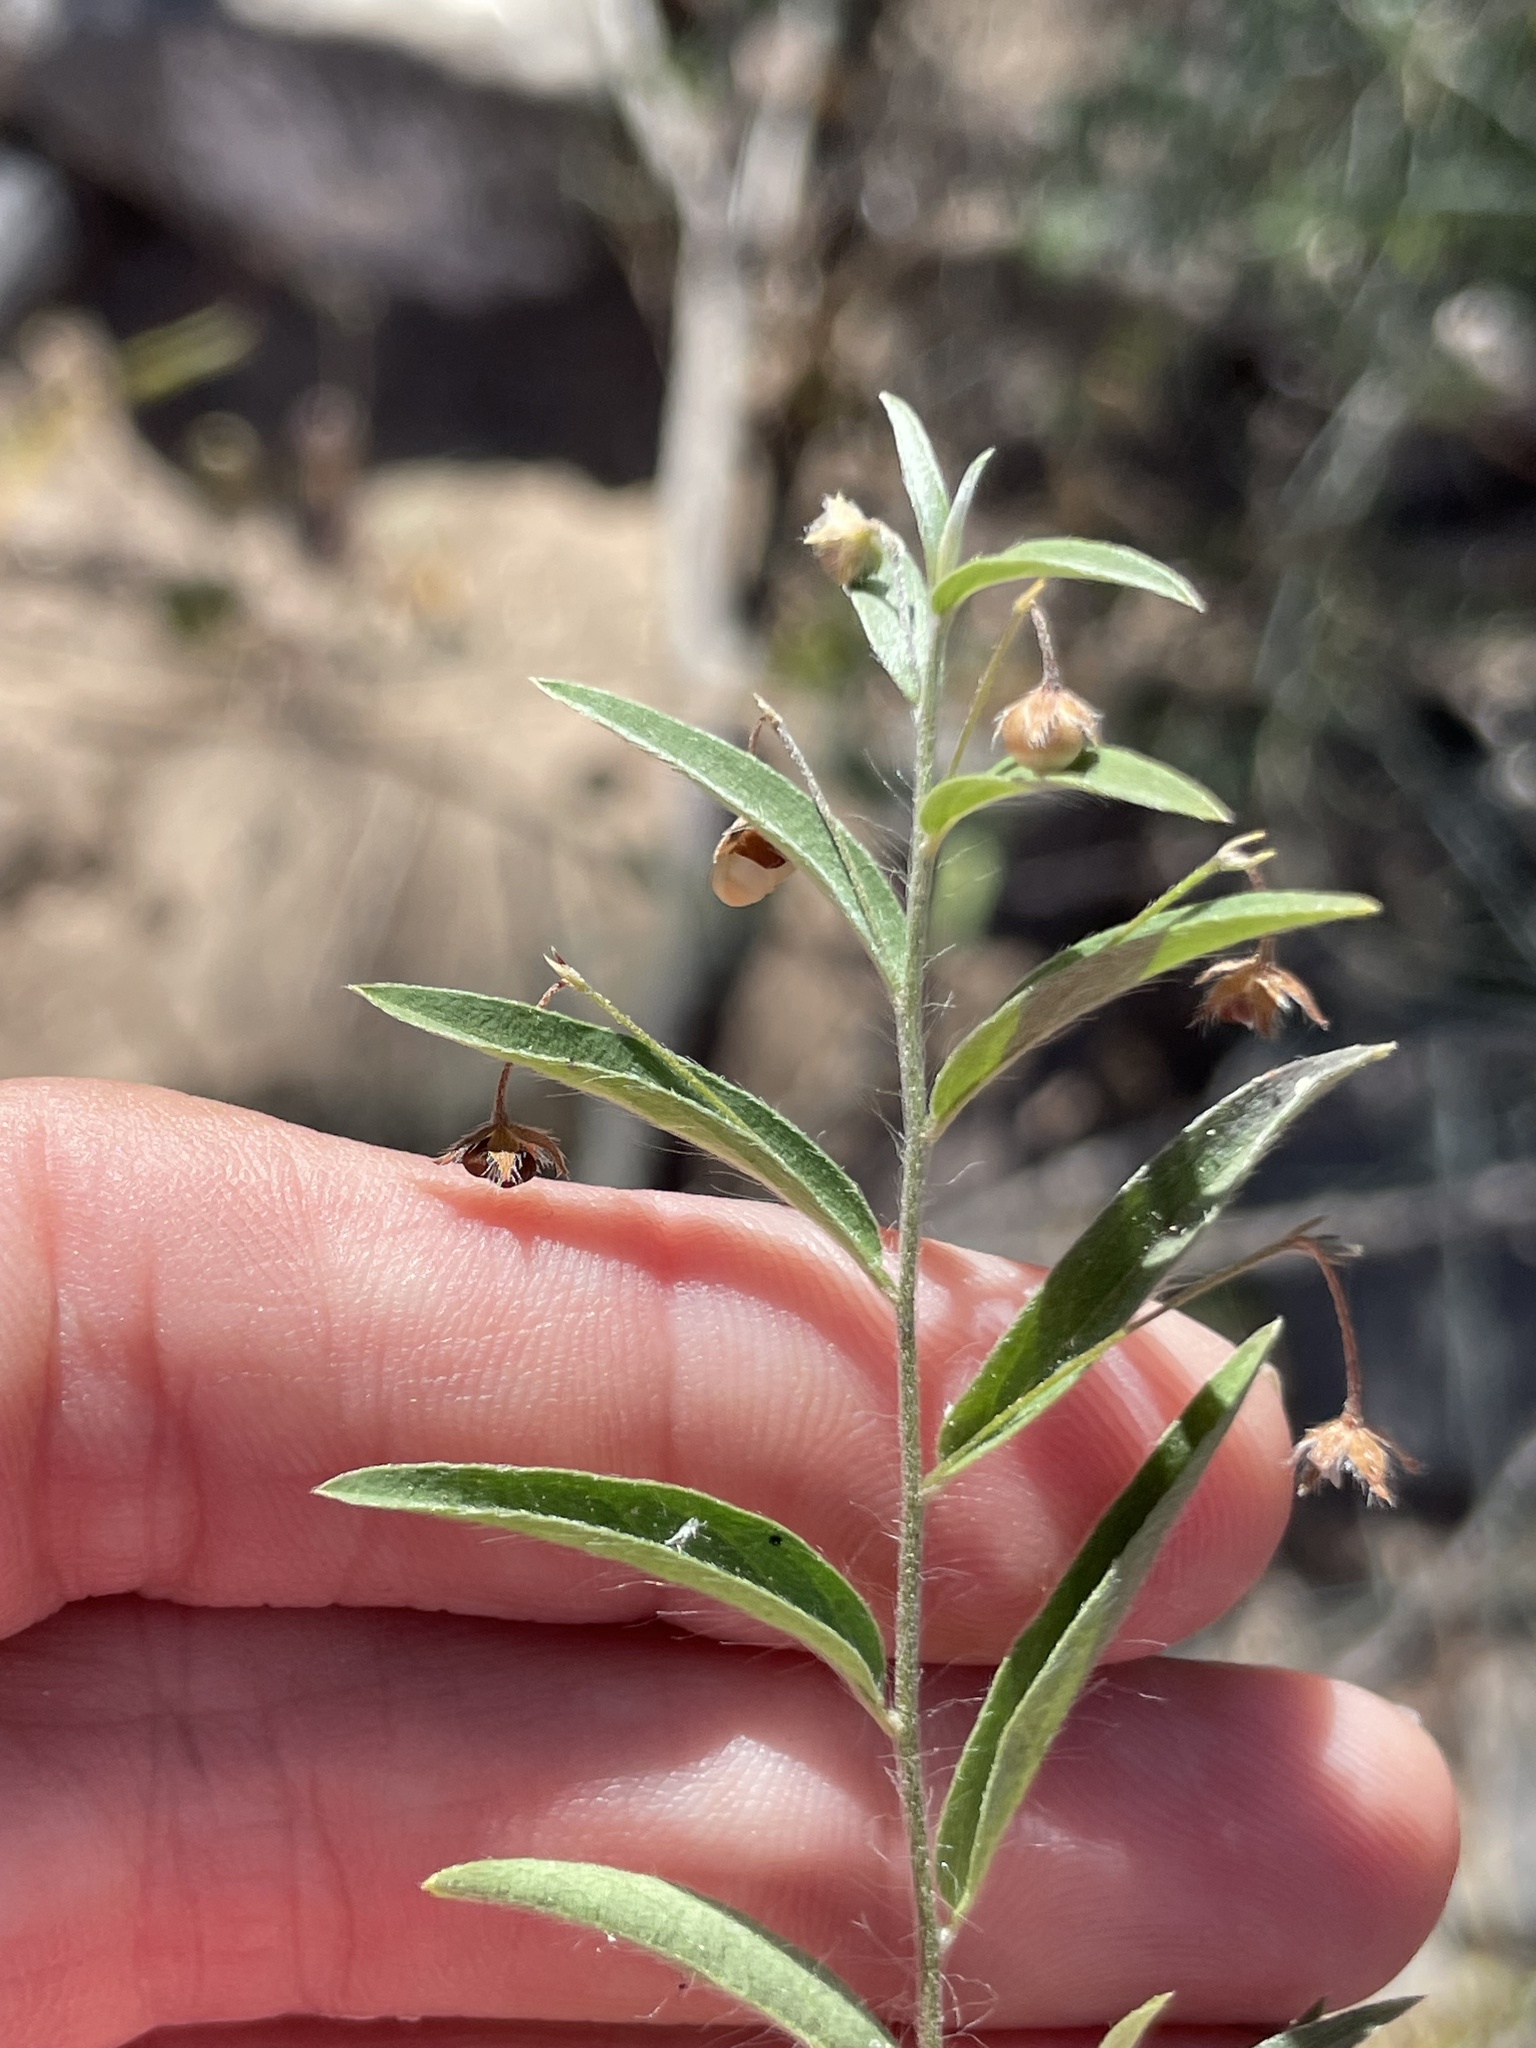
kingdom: Plantae
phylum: Tracheophyta
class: Magnoliopsida
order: Solanales
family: Convolvulaceae
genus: Evolvulus
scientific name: Evolvulus alsinoides
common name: Slender dwarf morning-glory
